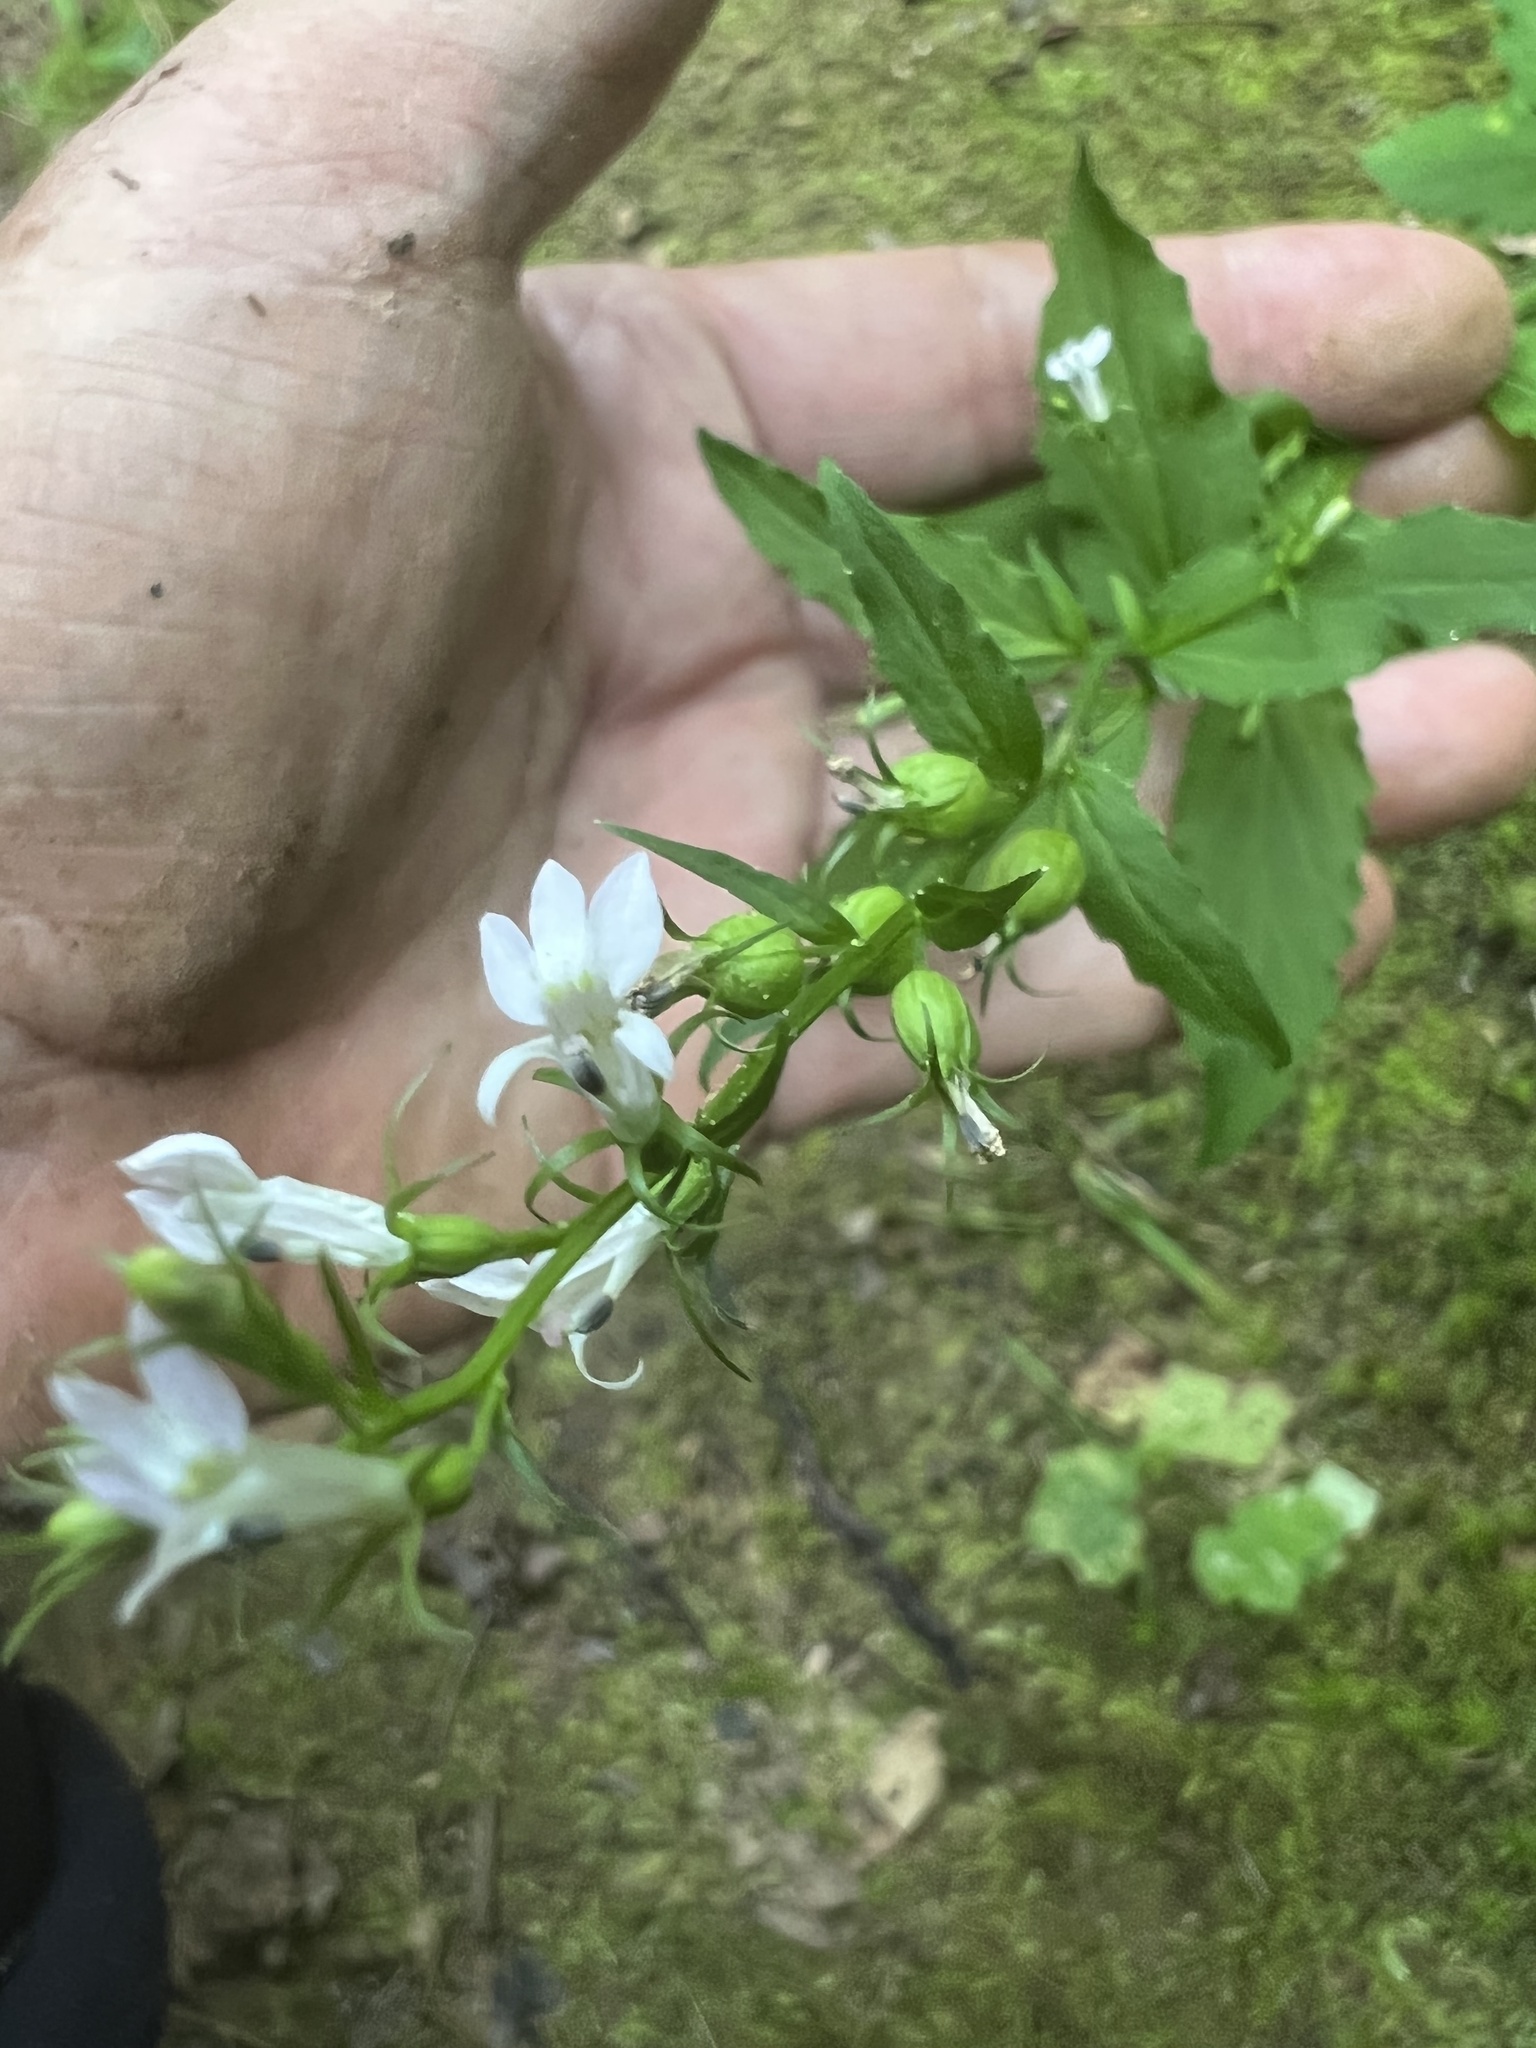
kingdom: Plantae
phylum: Tracheophyta
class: Magnoliopsida
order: Asterales
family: Campanulaceae
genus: Lobelia
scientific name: Lobelia inflata
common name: Indian tobacco
